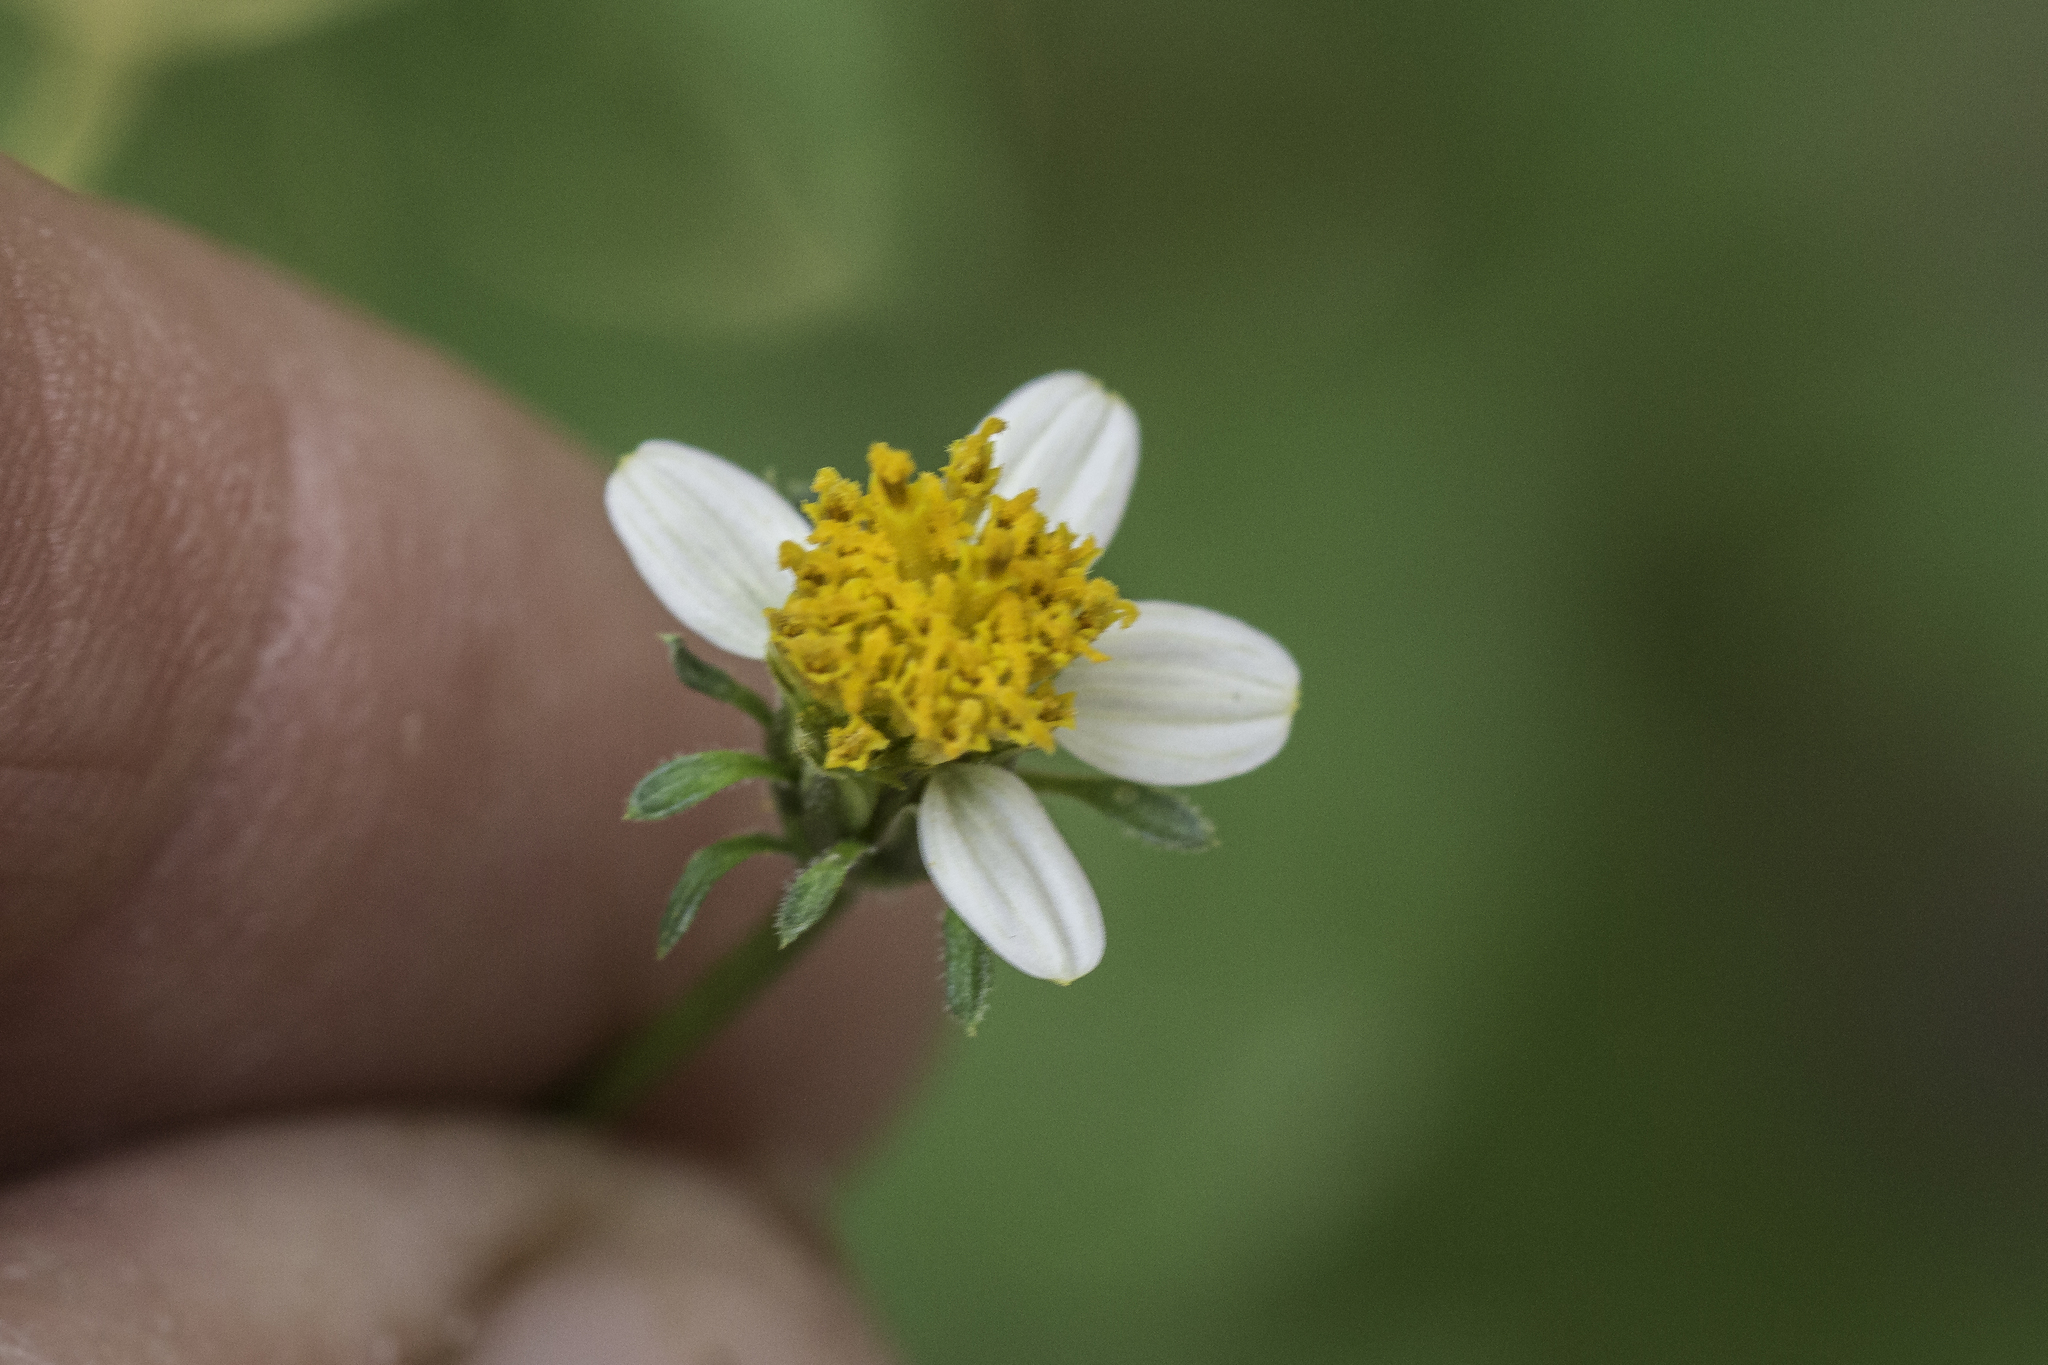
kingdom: Plantae
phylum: Tracheophyta
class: Magnoliopsida
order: Asterales
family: Asteraceae
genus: Bidens
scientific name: Bidens bigelovii
